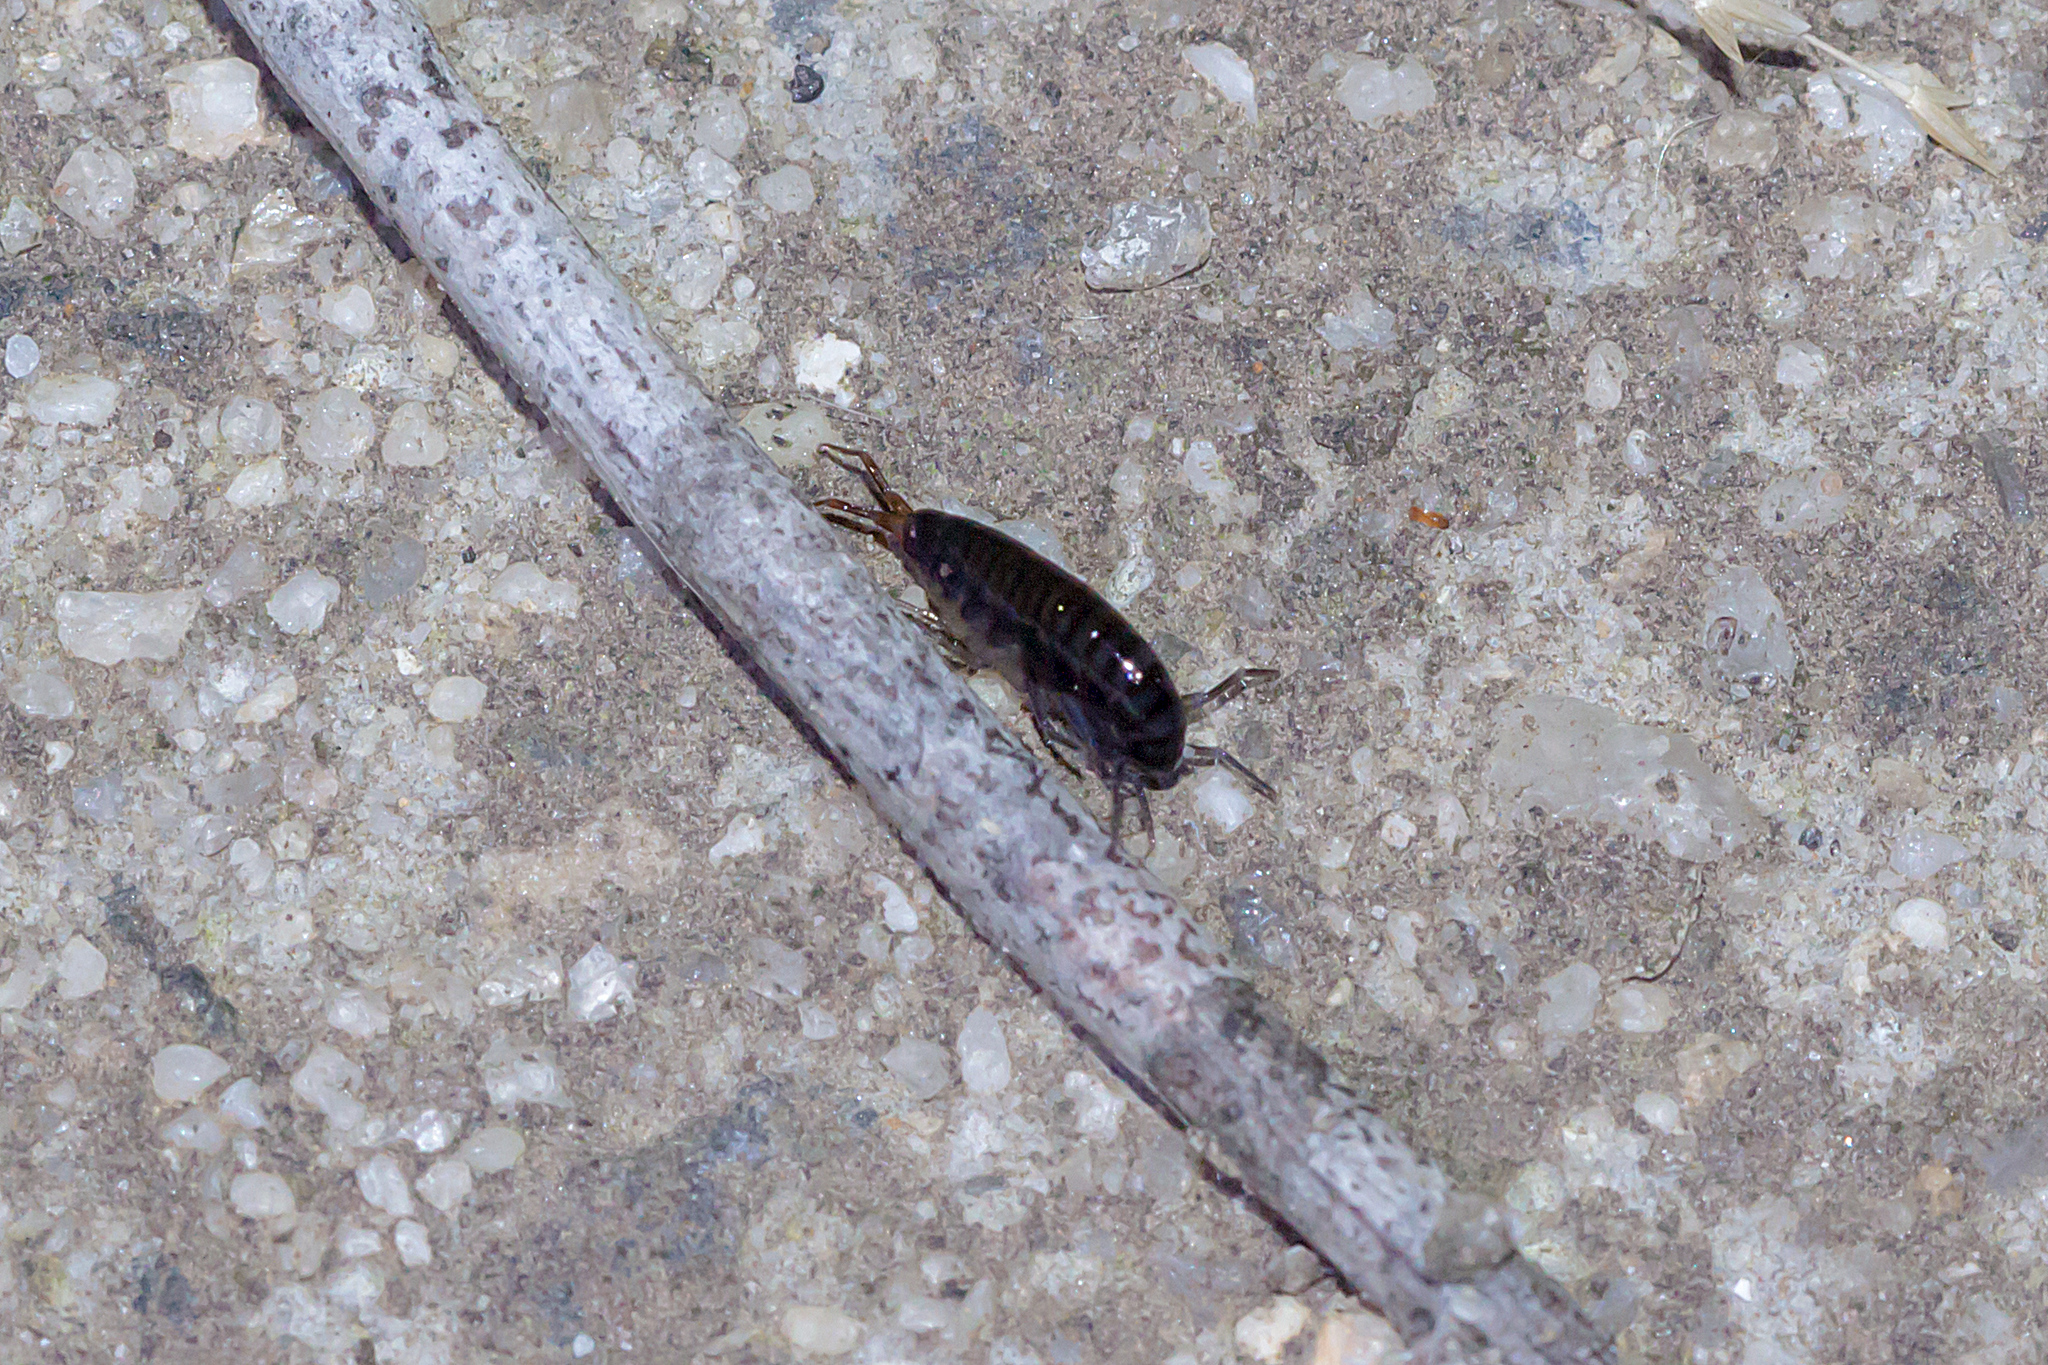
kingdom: Animalia
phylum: Arthropoda
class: Malacostraca
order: Amphipoda
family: Arcitalitridae
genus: Arcitalitrus
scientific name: Arcitalitrus sylvaticus
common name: Gammarid amphipod
